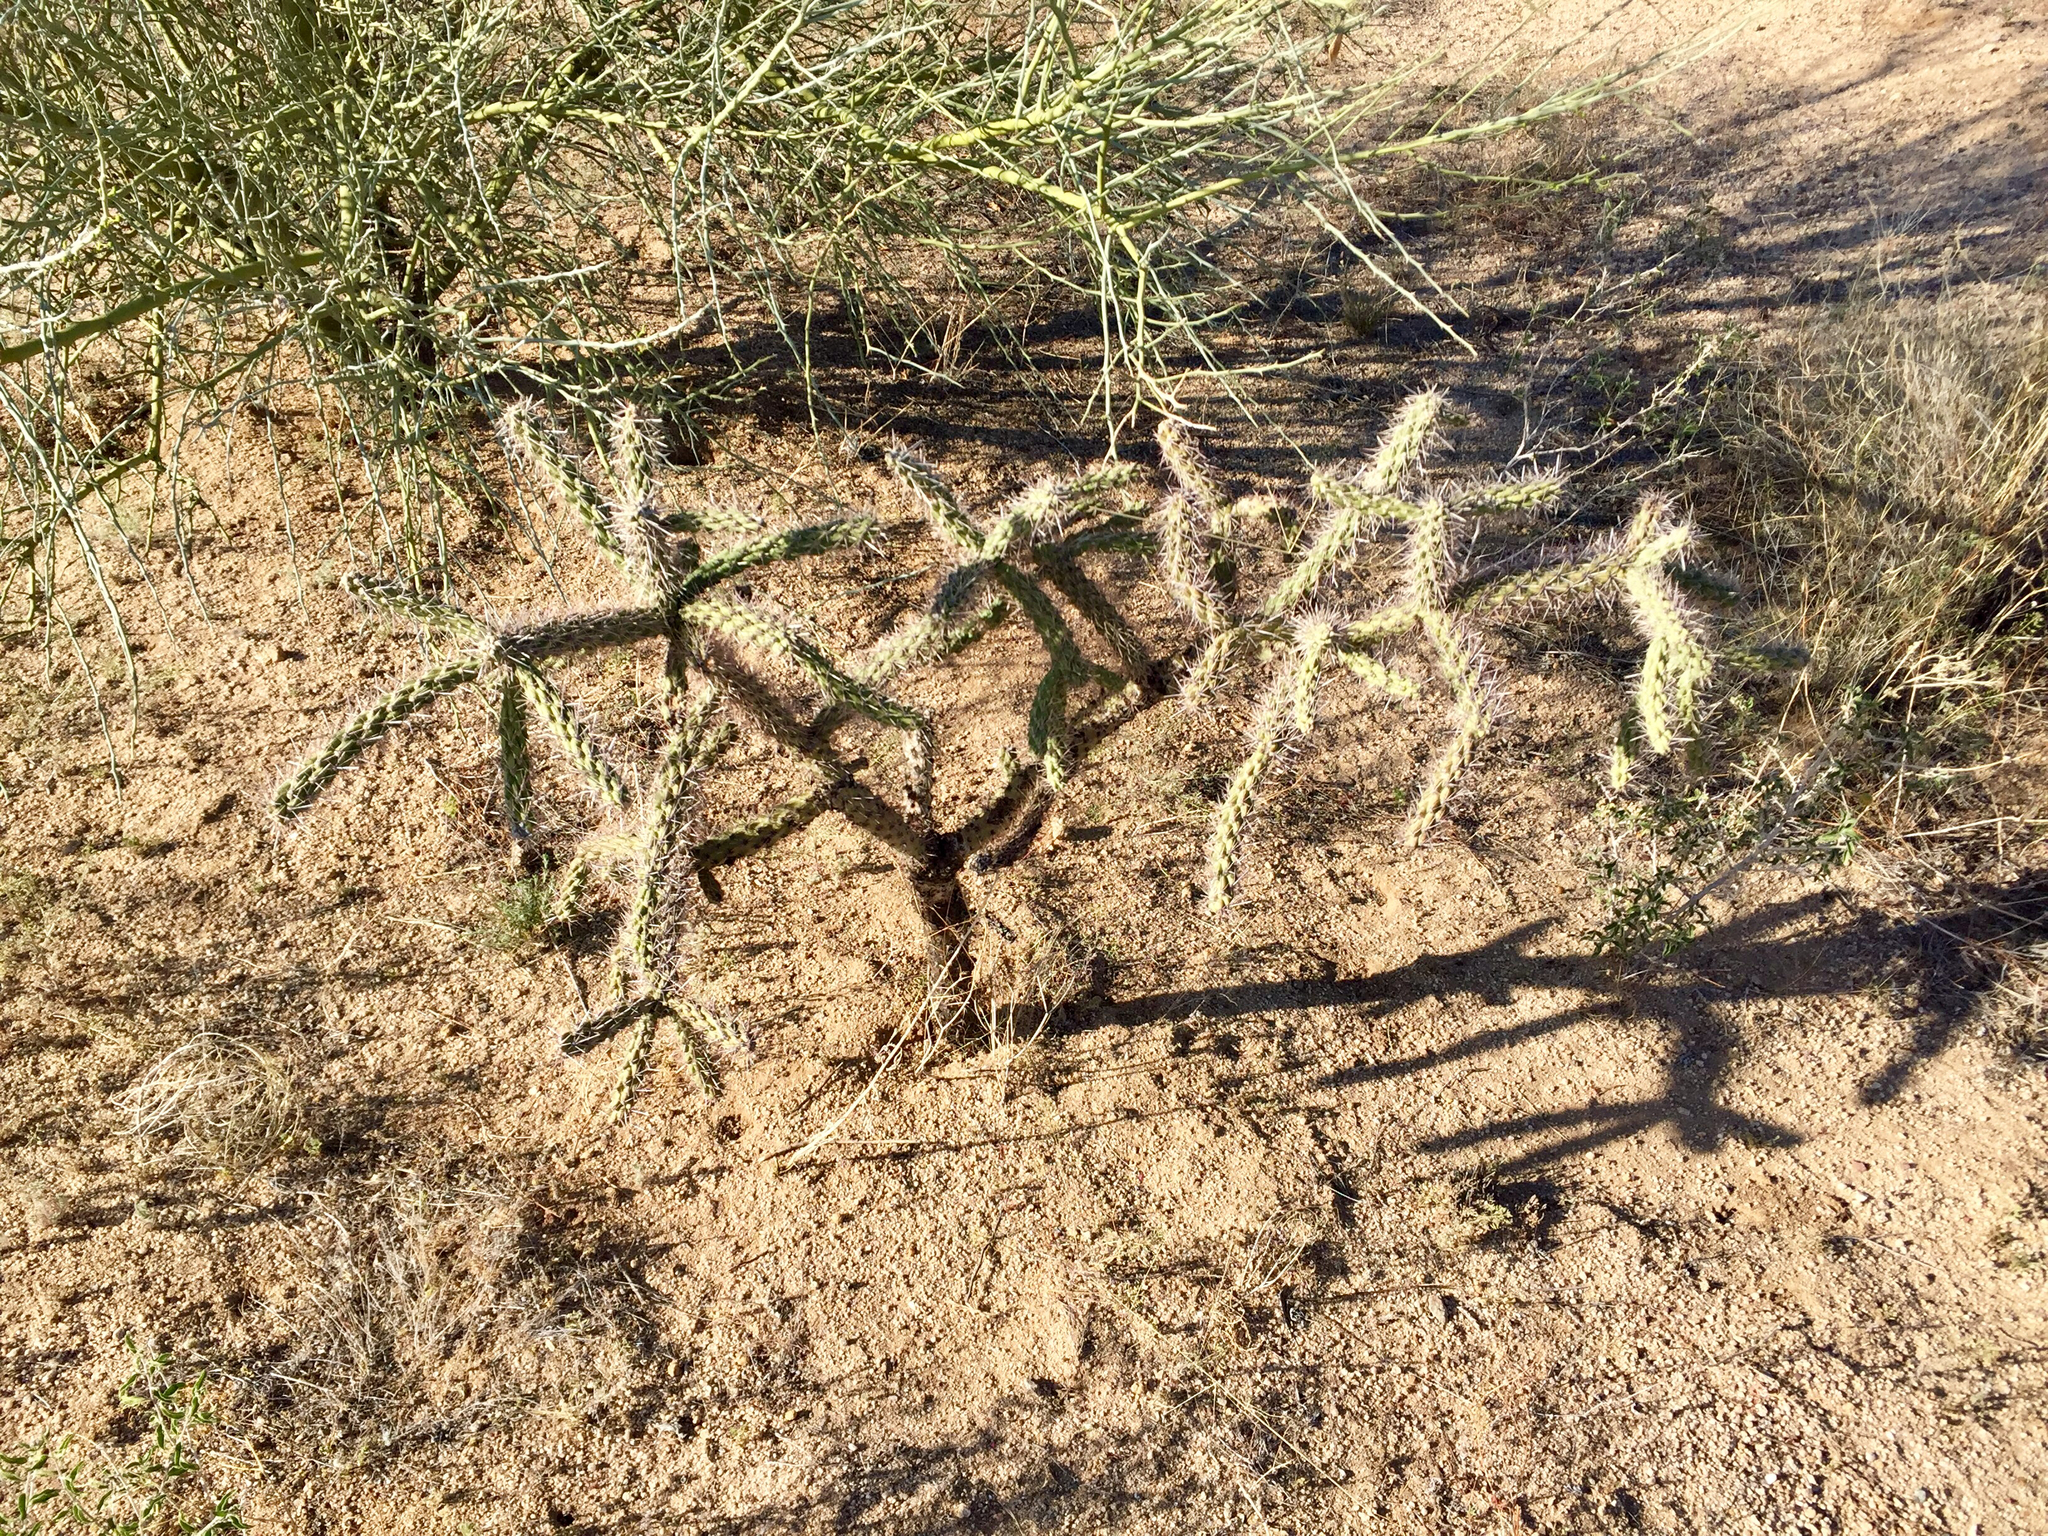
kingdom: Plantae
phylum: Tracheophyta
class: Magnoliopsida
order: Caryophyllales
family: Cactaceae
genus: Cylindropuntia
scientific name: Cylindropuntia imbricata
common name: Candelabrum cactus
